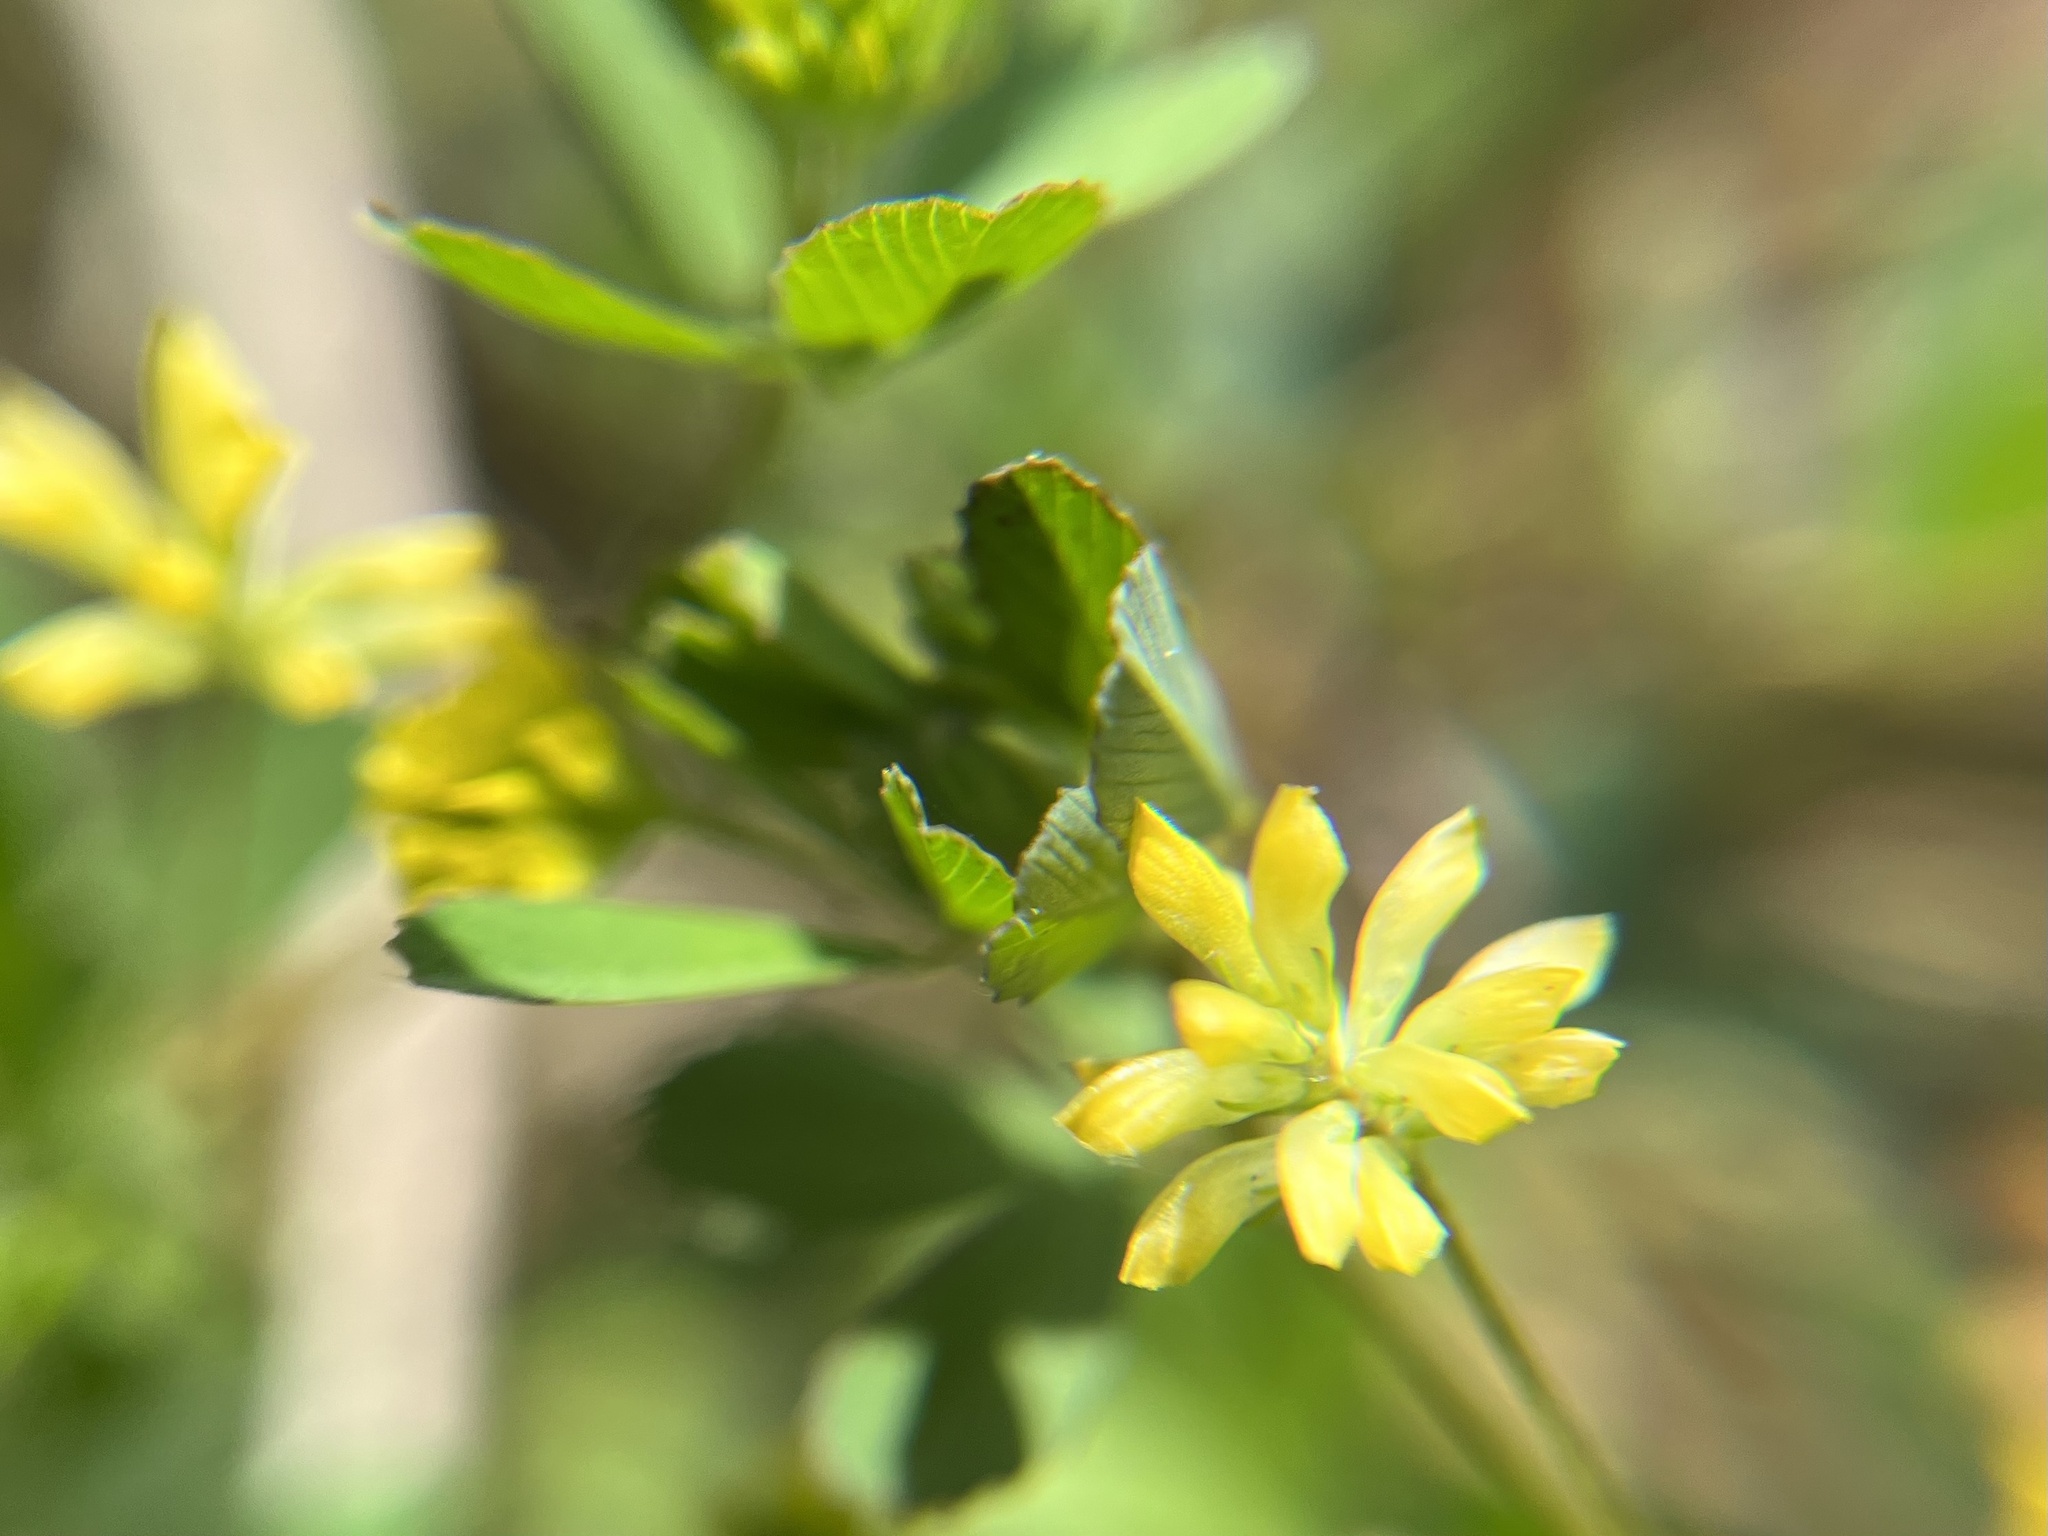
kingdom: Plantae
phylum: Tracheophyta
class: Magnoliopsida
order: Fabales
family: Fabaceae
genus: Trifolium
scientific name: Trifolium dubium
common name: Suckling clover
